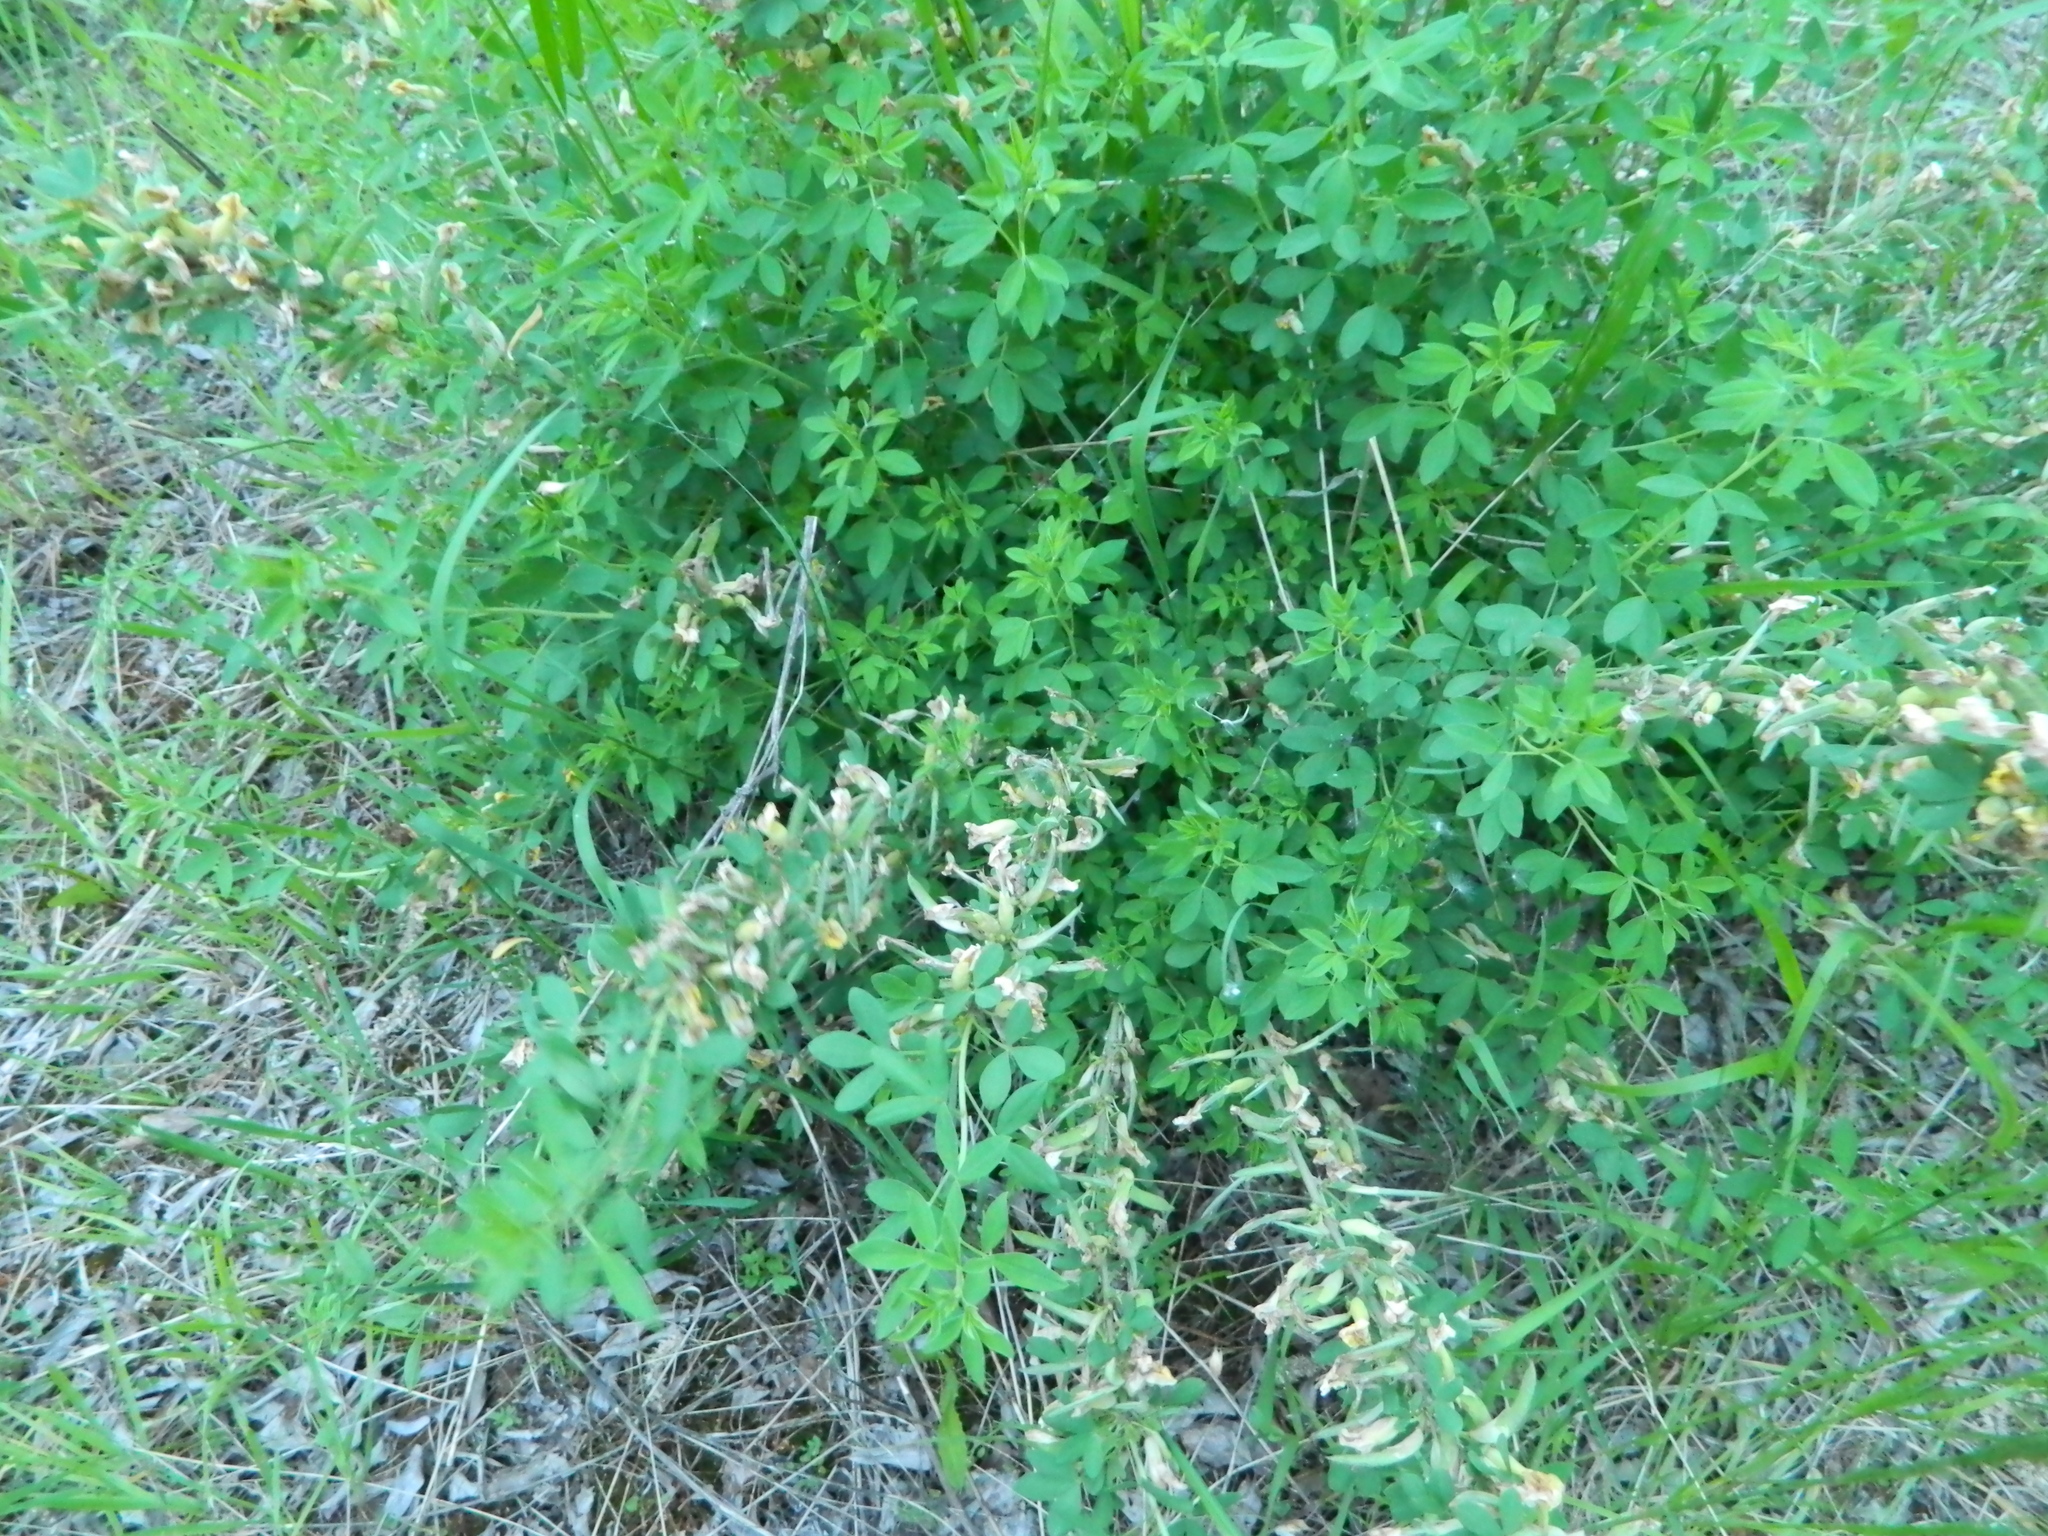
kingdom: Plantae
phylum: Tracheophyta
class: Magnoliopsida
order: Fabales
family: Fabaceae
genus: Chamaecytisus
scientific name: Chamaecytisus ruthenicus
